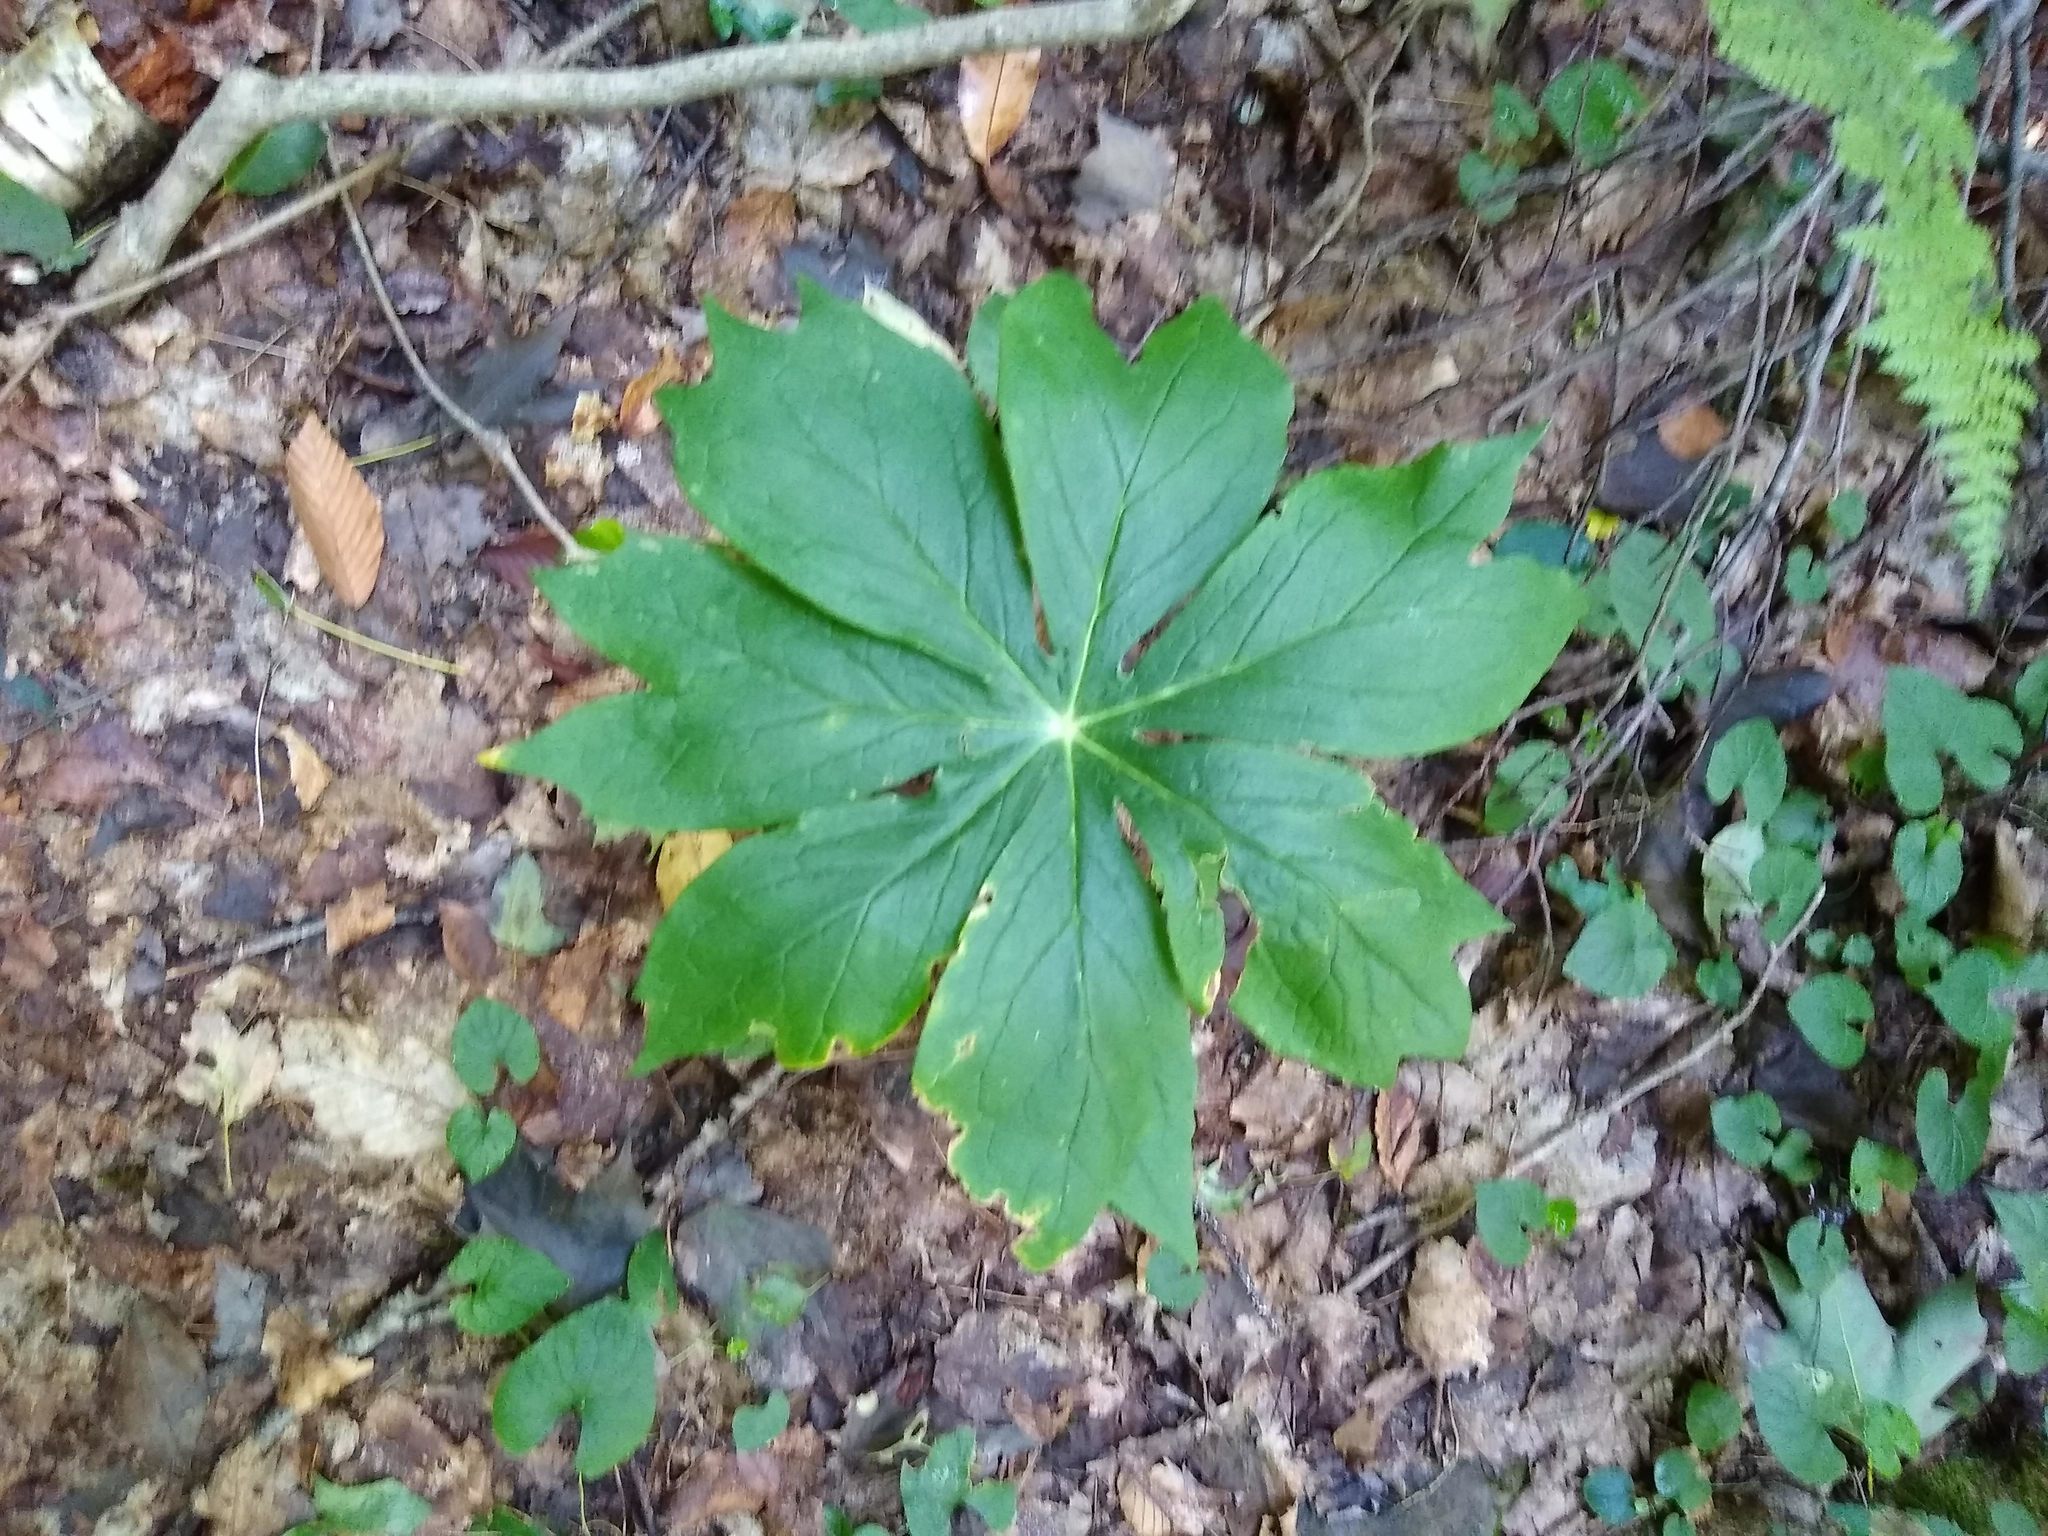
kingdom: Plantae
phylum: Tracheophyta
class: Magnoliopsida
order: Ranunculales
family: Berberidaceae
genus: Podophyllum
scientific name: Podophyllum peltatum
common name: Wild mandrake
